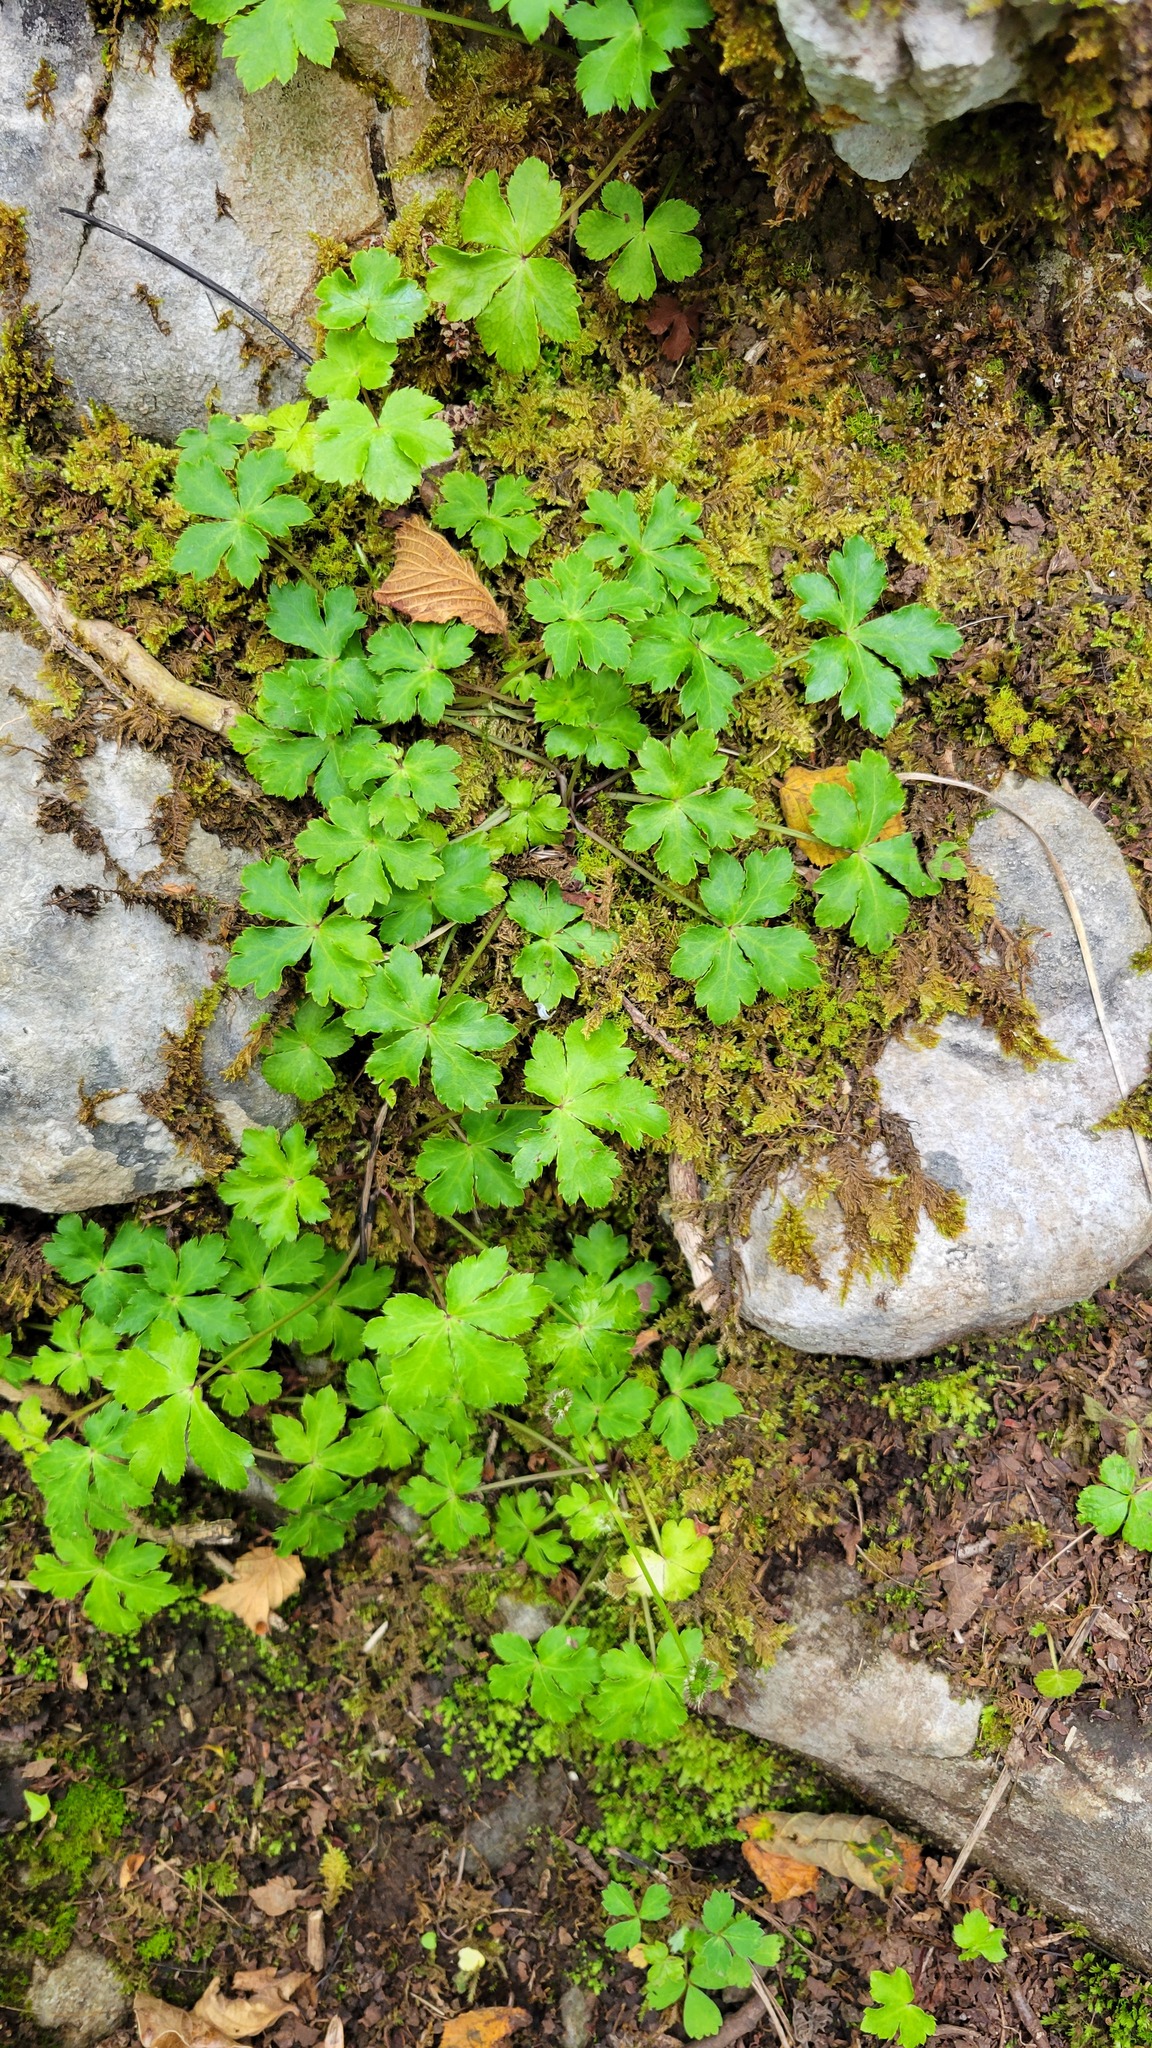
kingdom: Plantae
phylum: Tracheophyta
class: Magnoliopsida
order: Apiales
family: Apiaceae
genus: Sanicula
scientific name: Sanicula europaea
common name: Sanicle
